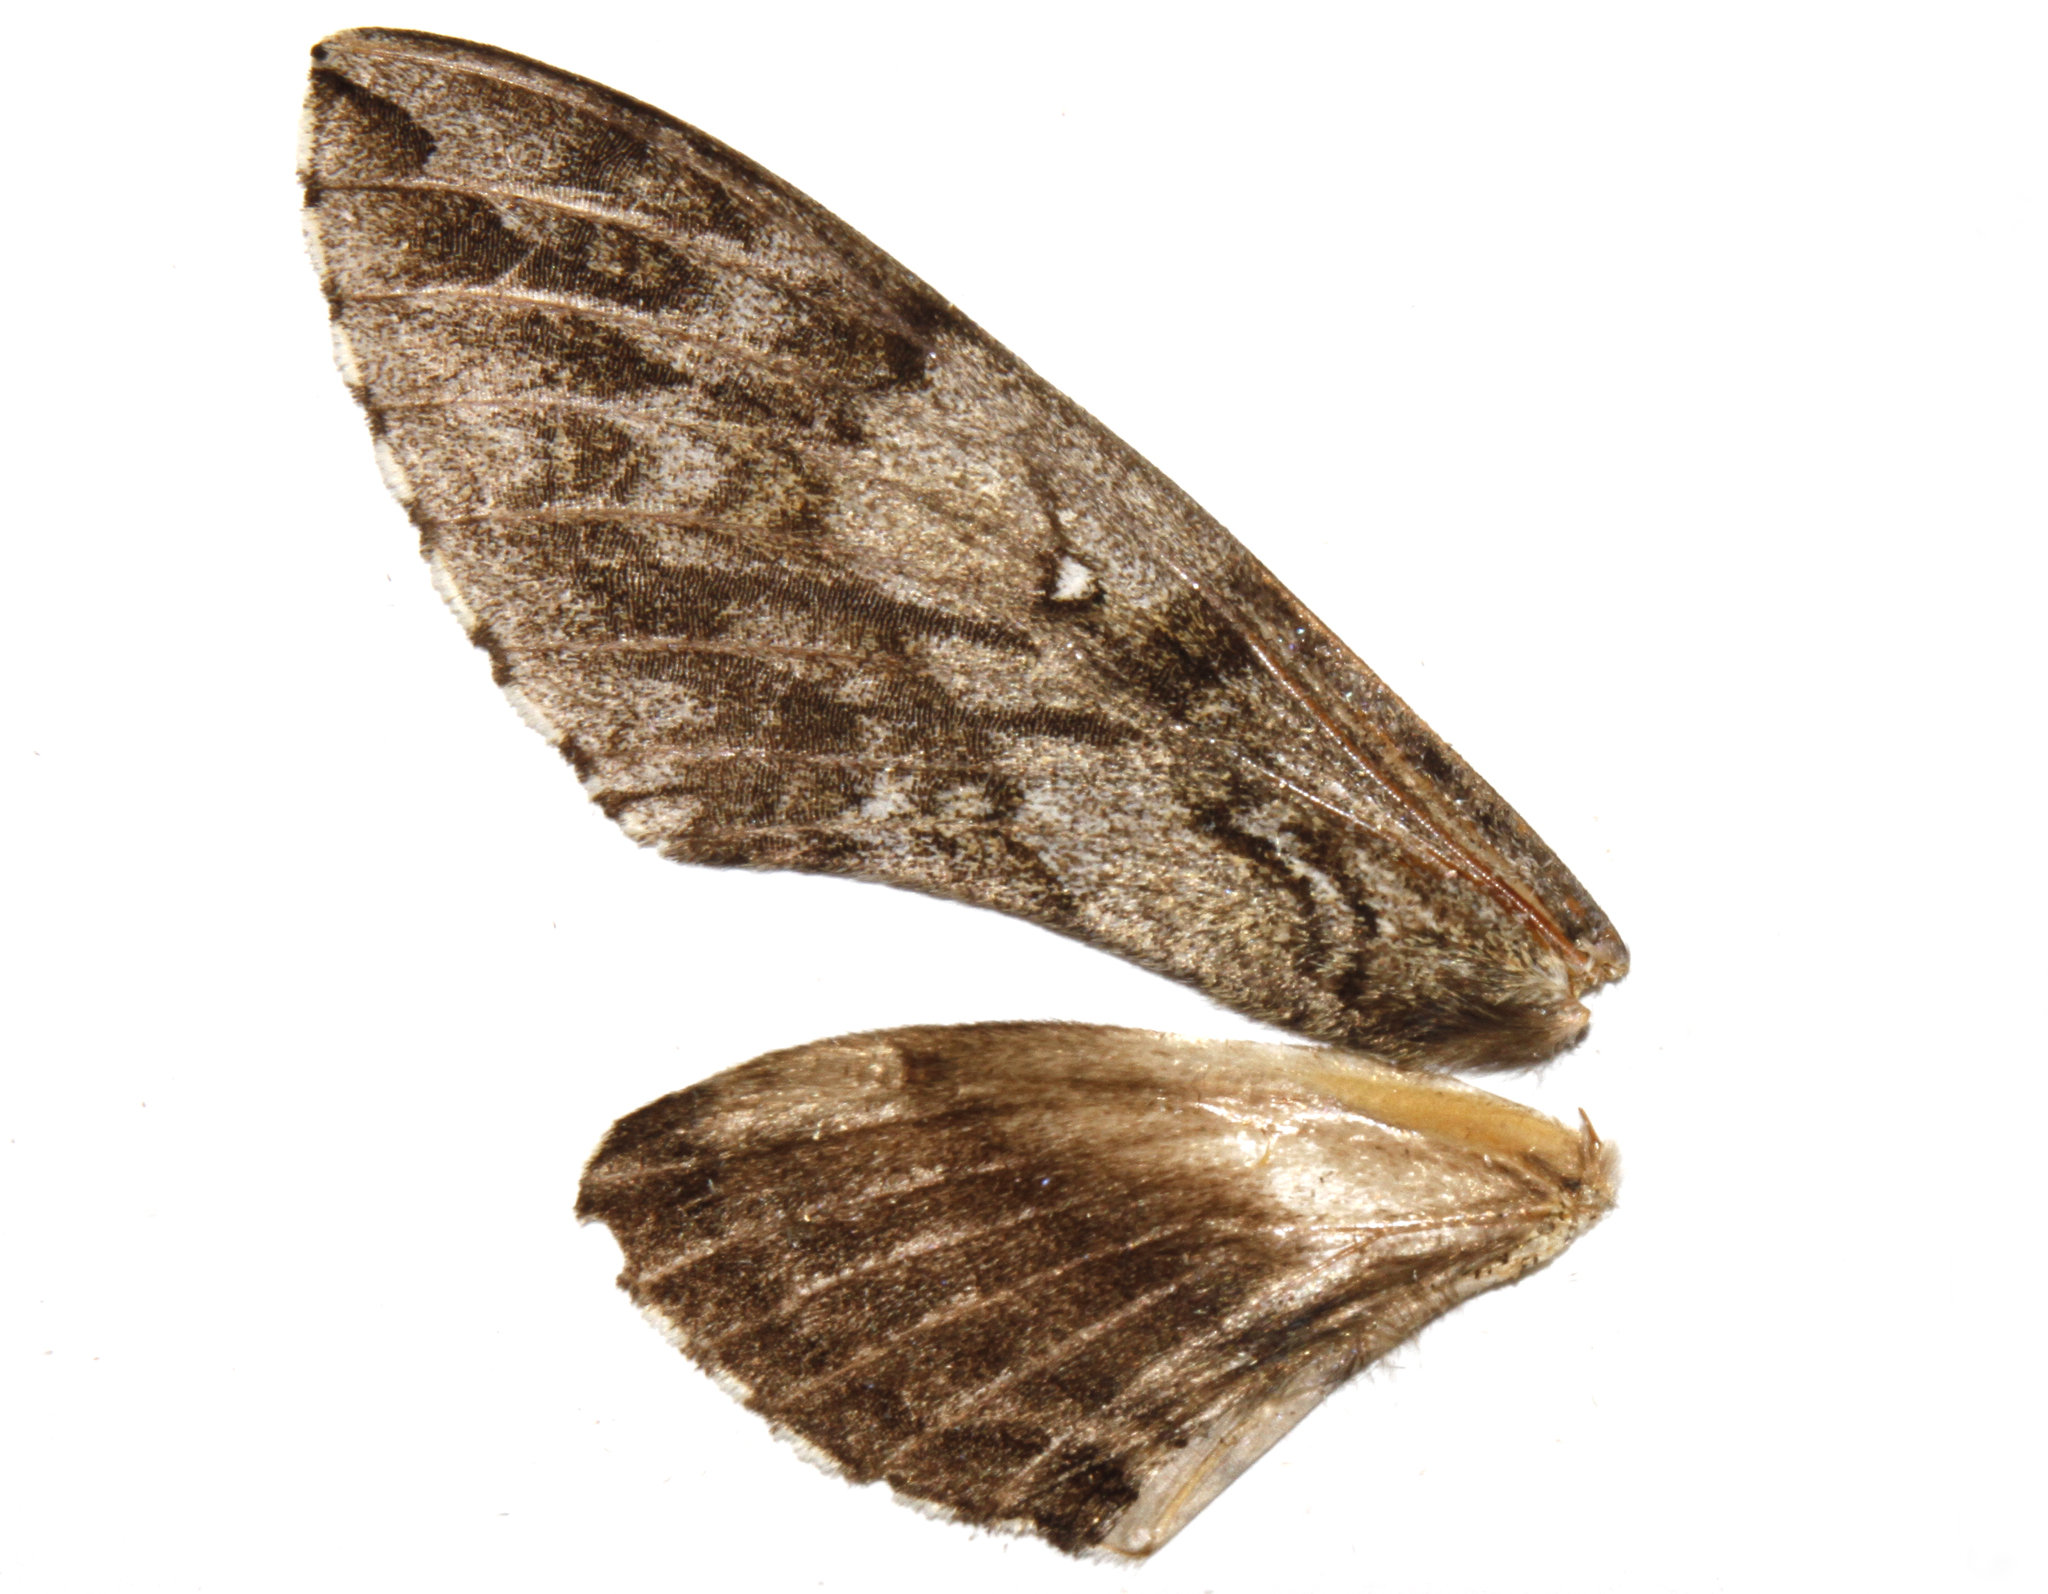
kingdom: Animalia
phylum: Arthropoda
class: Insecta
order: Lepidoptera
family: Sphingidae
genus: Ceratomia
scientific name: Ceratomia undulosa
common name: Waved sphinx
